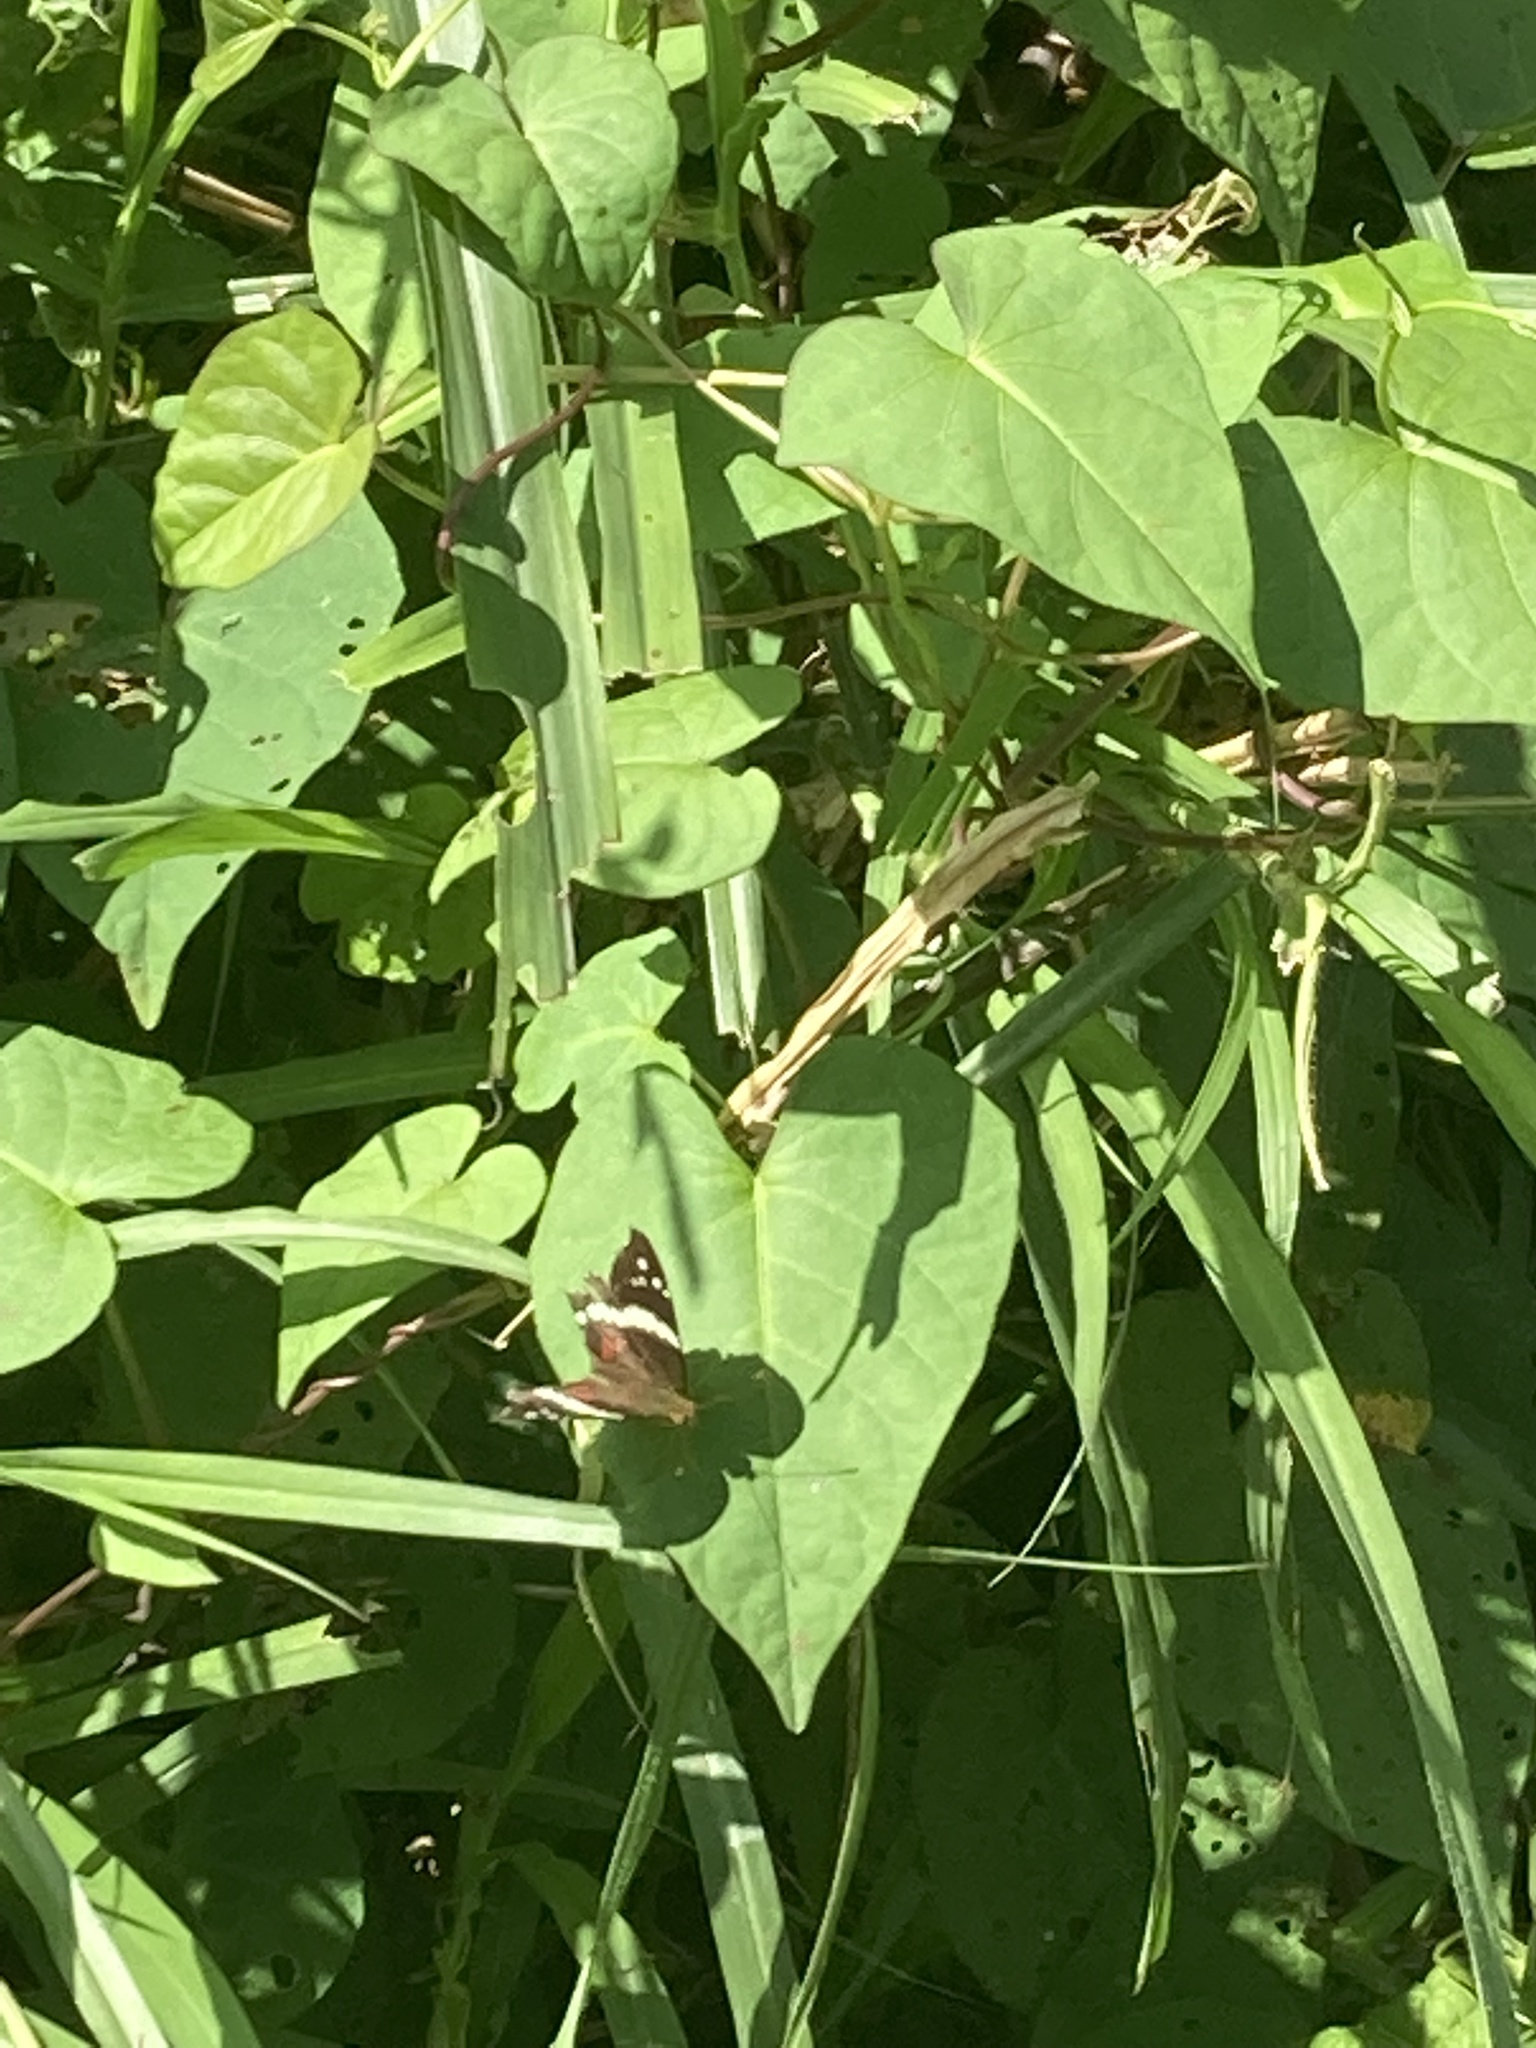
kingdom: Animalia
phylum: Arthropoda
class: Insecta
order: Lepidoptera
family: Nymphalidae
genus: Anartia
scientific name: Anartia fatima
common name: Banded peacock
